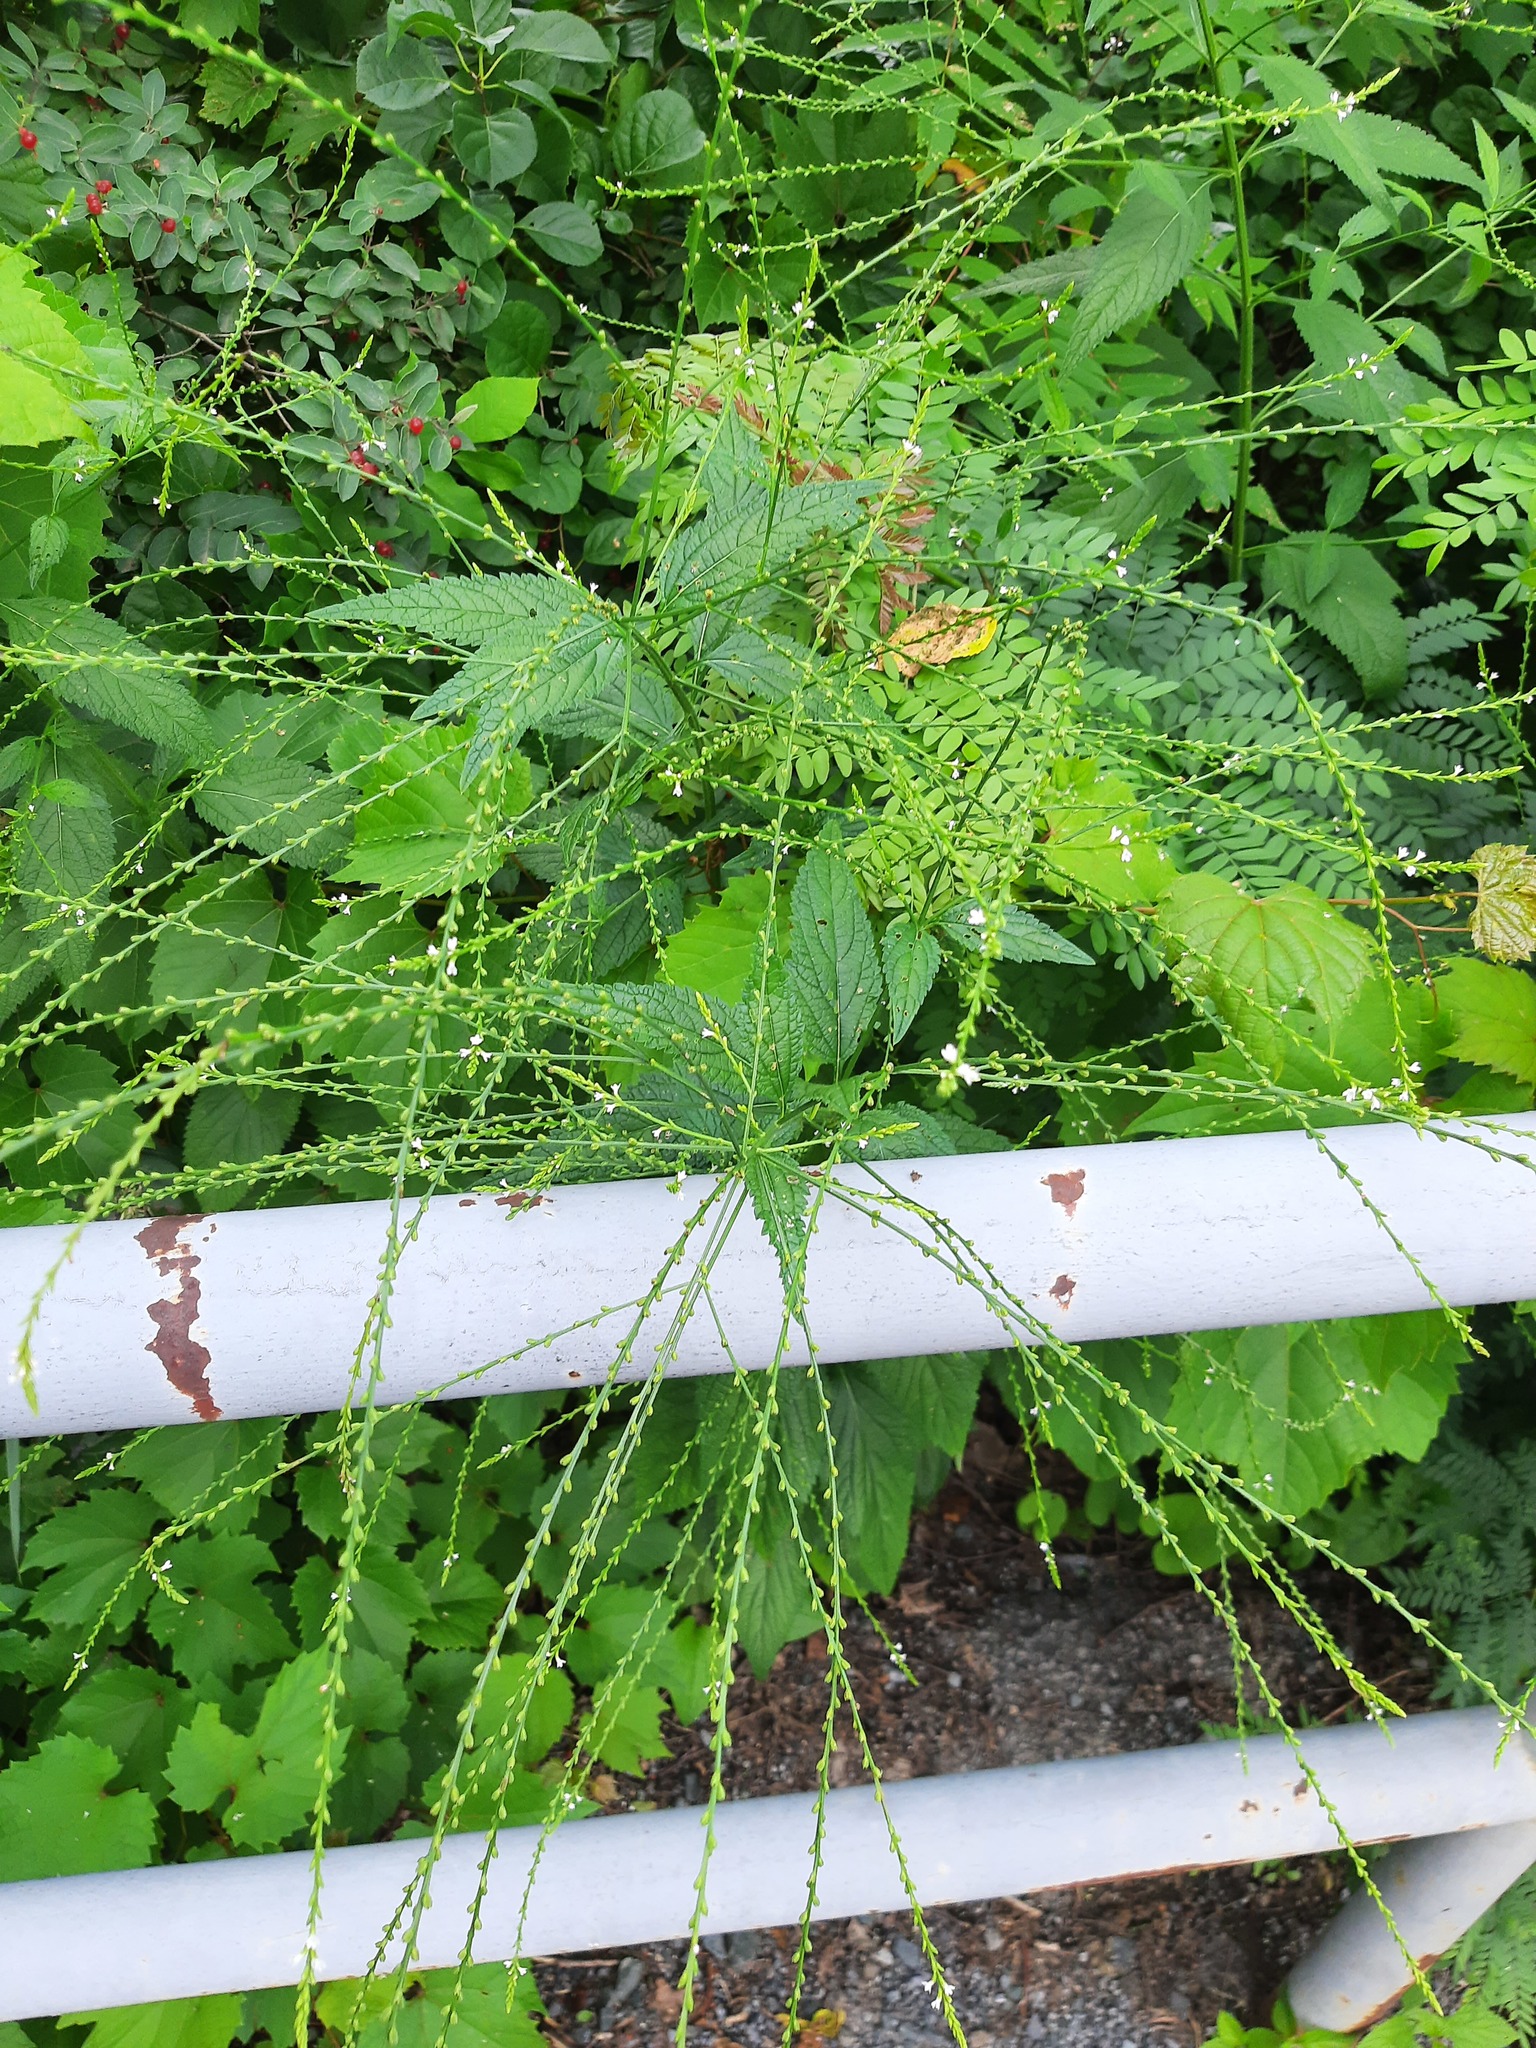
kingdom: Plantae
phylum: Tracheophyta
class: Magnoliopsida
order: Lamiales
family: Verbenaceae
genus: Verbena
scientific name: Verbena urticifolia
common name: Nettle-leaved vervain
